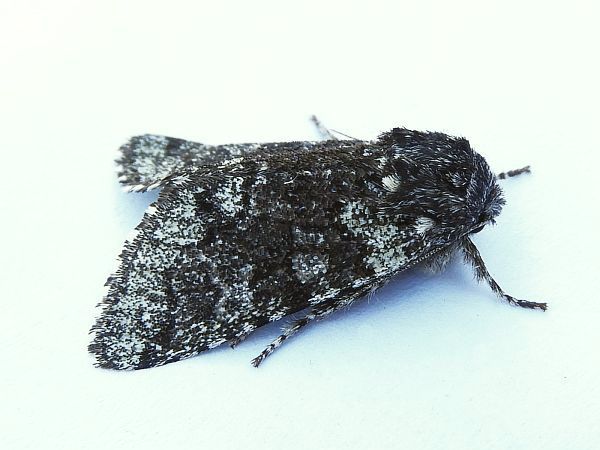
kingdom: Animalia
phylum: Arthropoda
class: Insecta
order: Lepidoptera
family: Noctuidae
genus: Feralia
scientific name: Feralia major
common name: Major sallow
